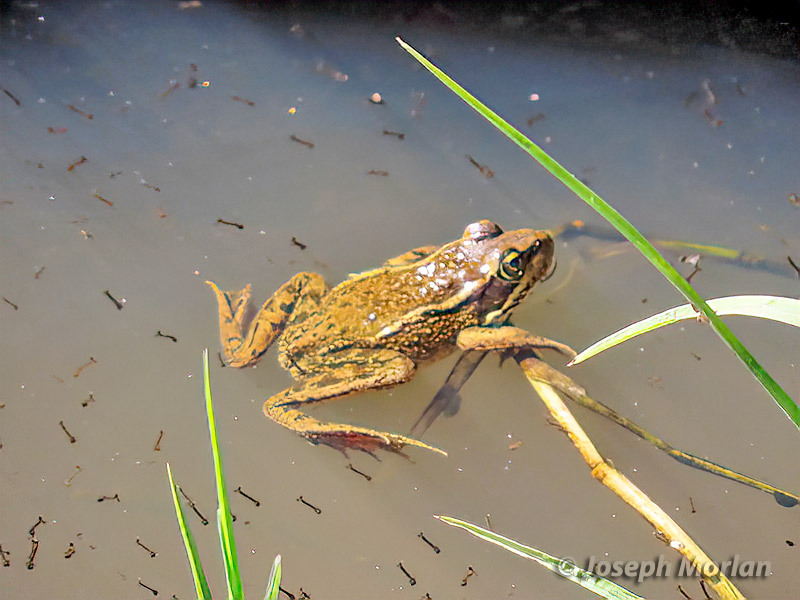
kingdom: Animalia
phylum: Chordata
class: Amphibia
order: Anura
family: Ranidae
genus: Rana
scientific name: Rana draytonii
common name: California red-legged frog
